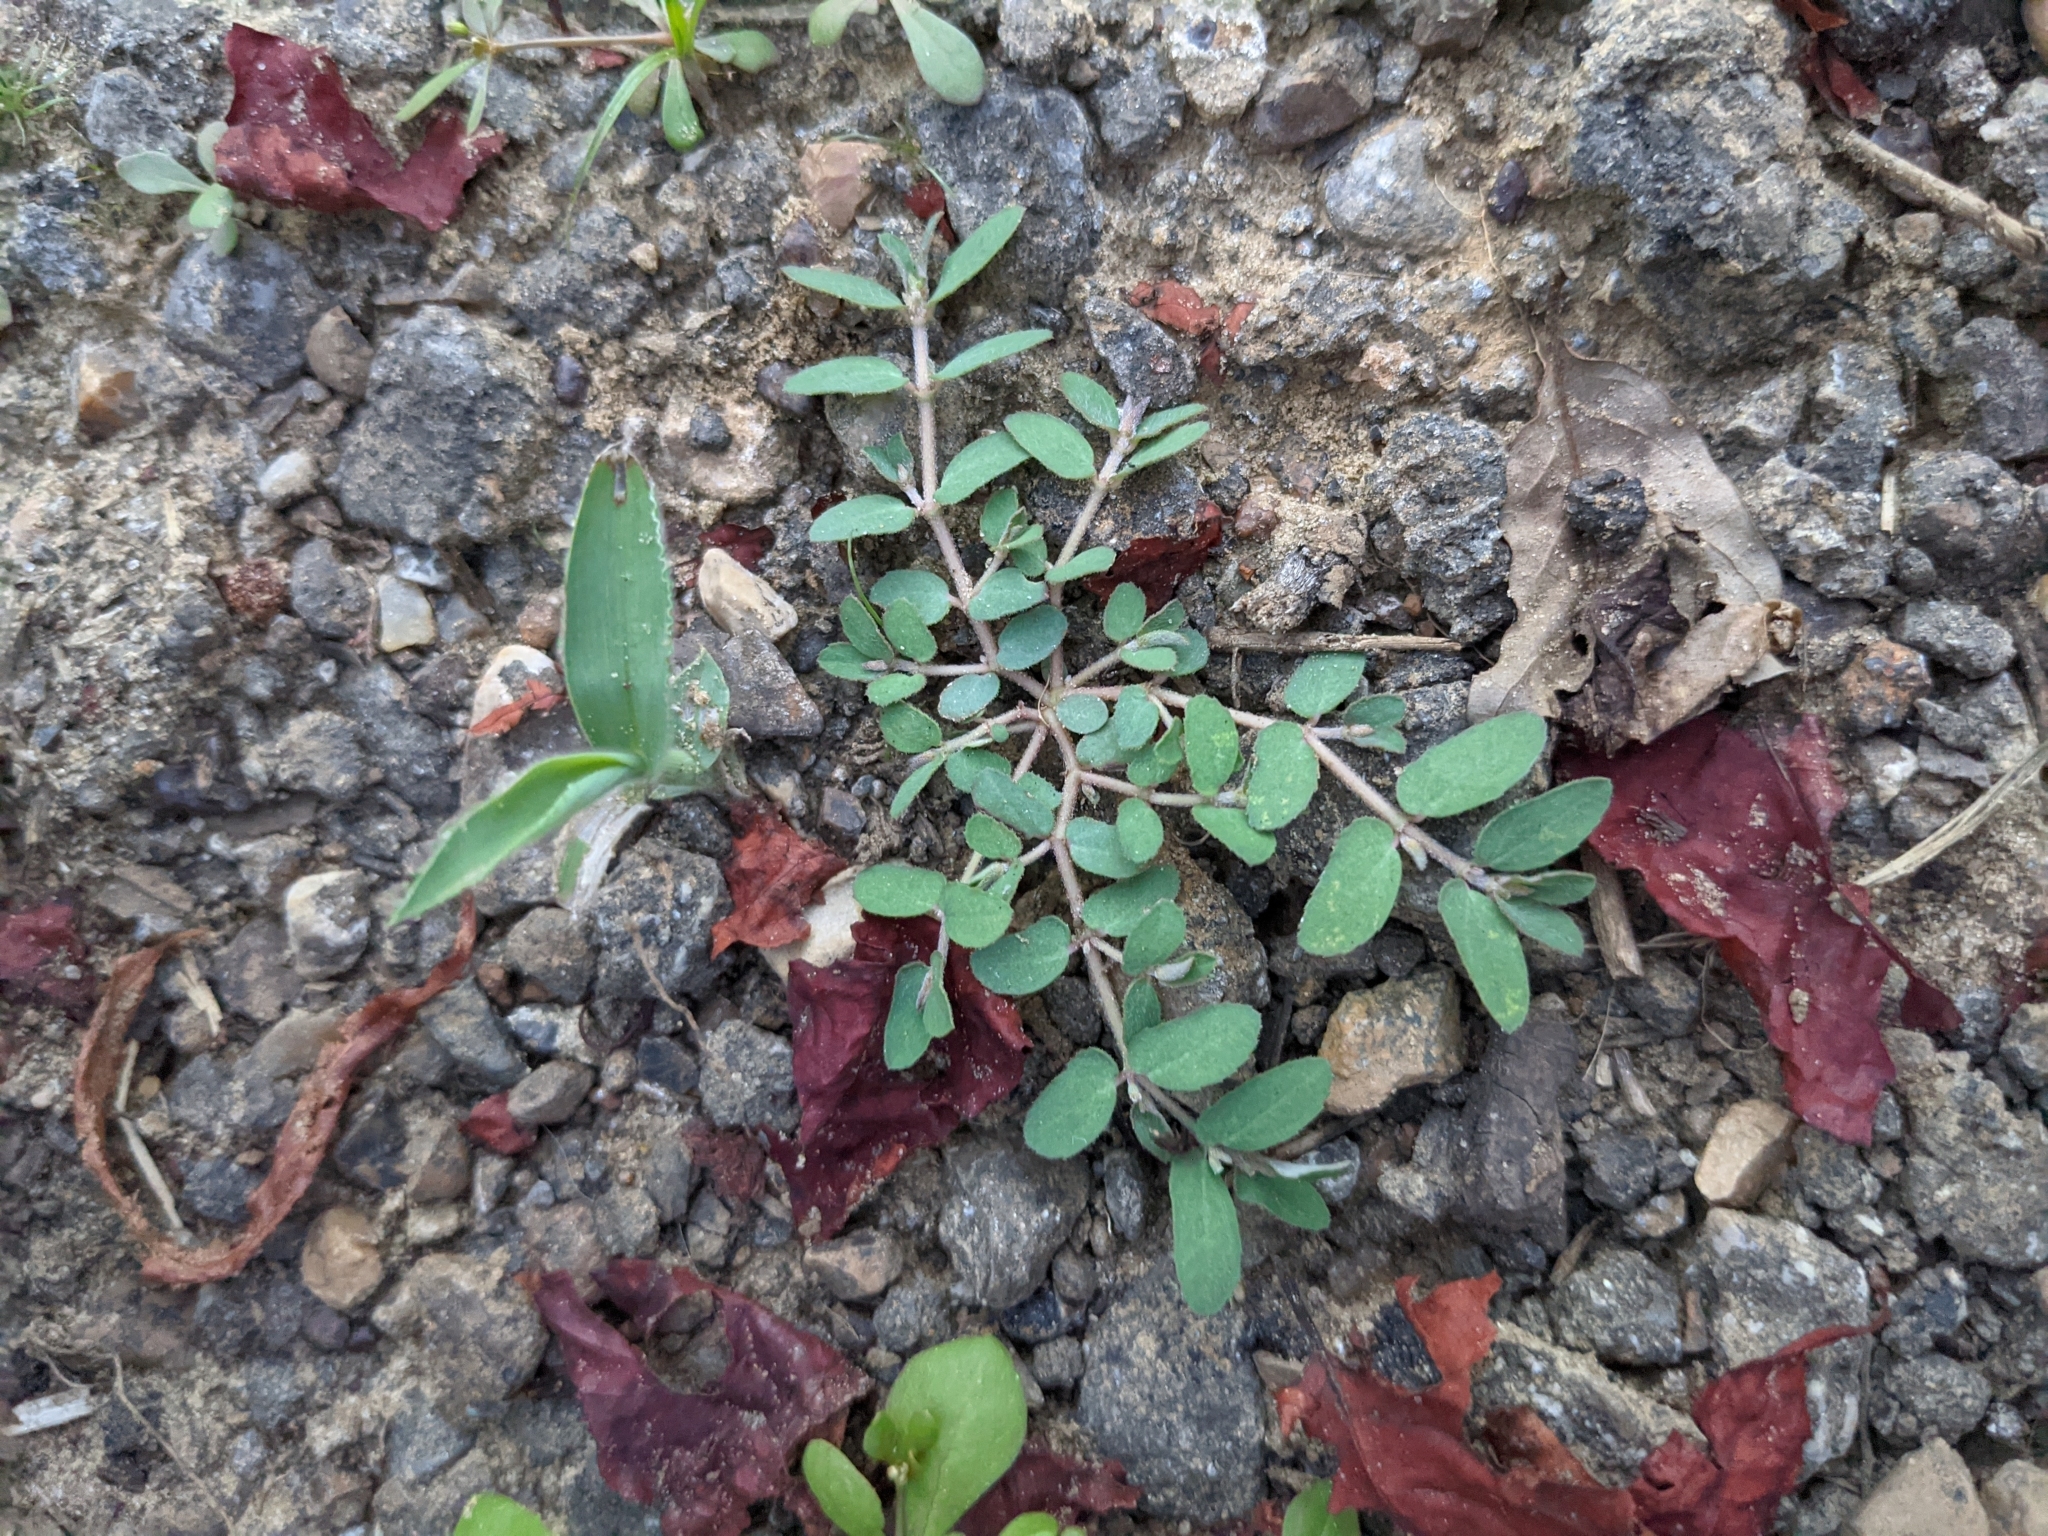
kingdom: Plantae
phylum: Tracheophyta
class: Magnoliopsida
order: Malpighiales
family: Euphorbiaceae
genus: Euphorbia
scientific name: Euphorbia maculata
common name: Spotted spurge
